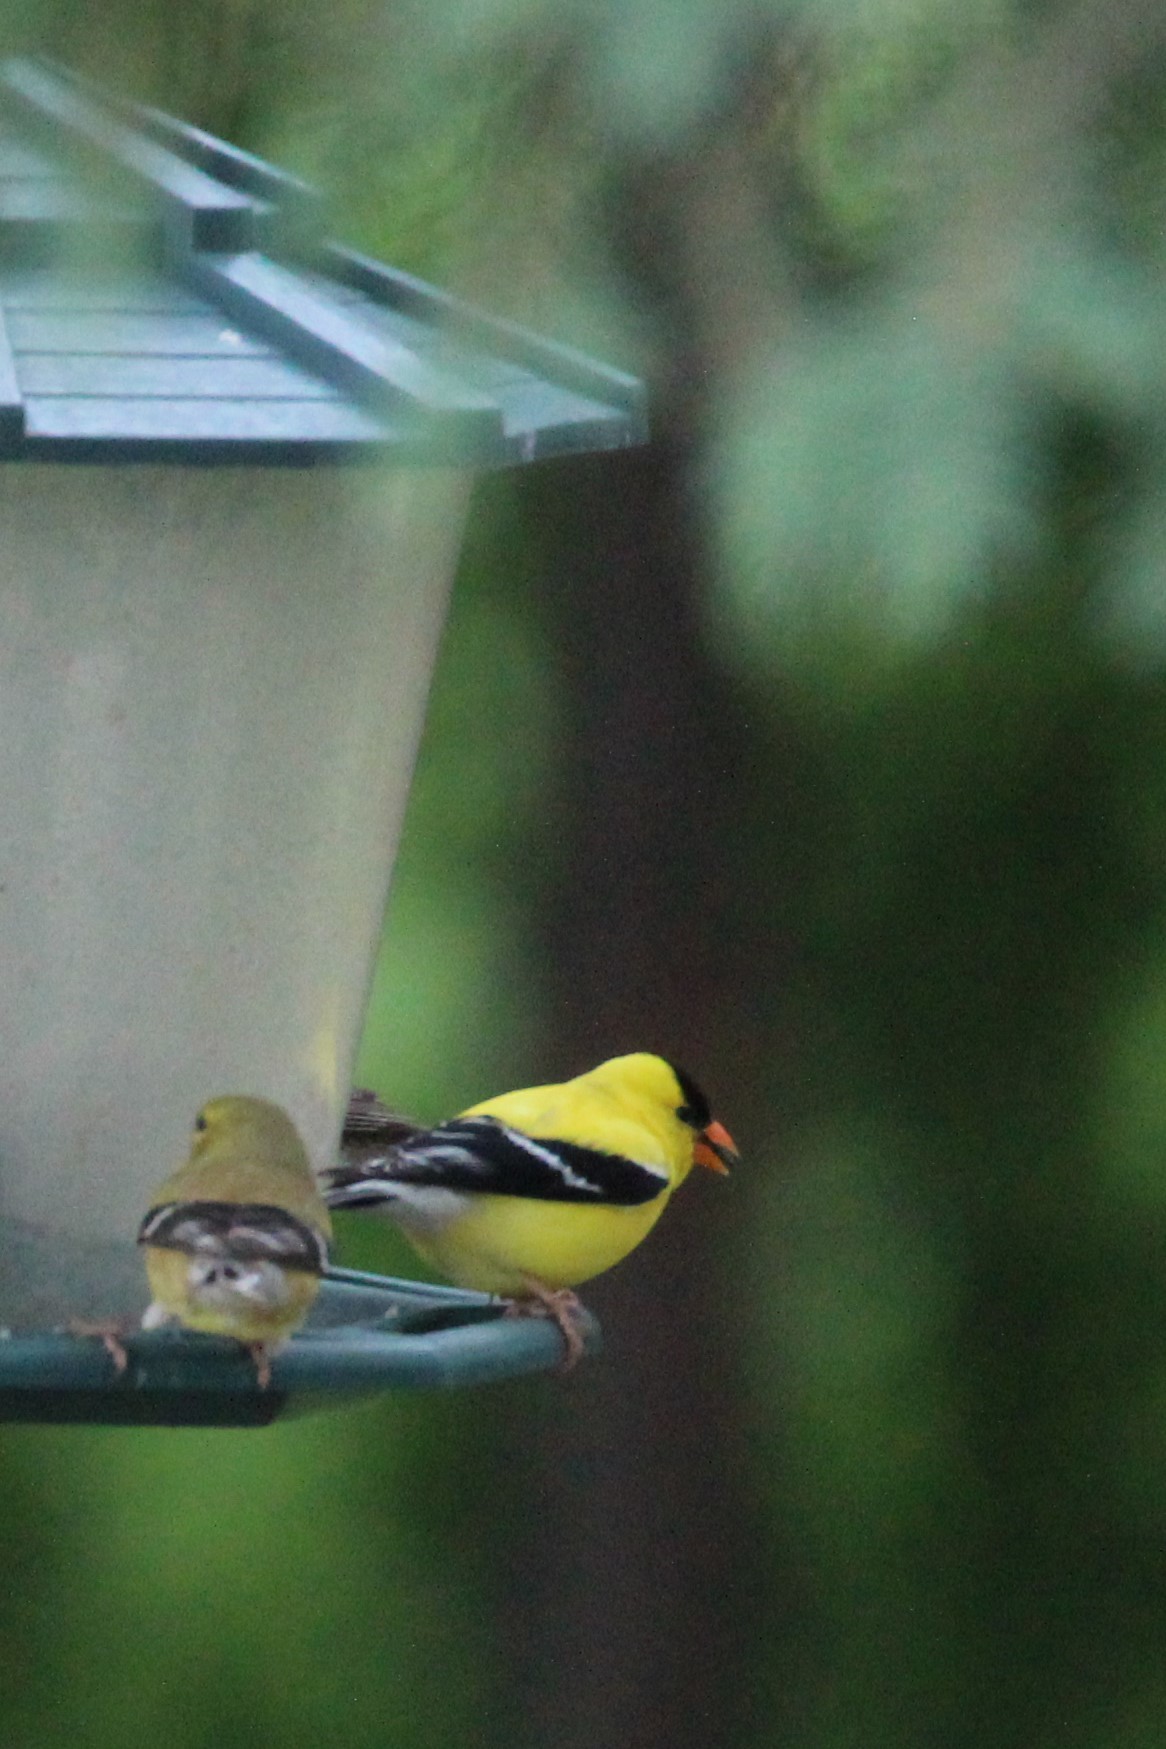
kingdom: Animalia
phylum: Chordata
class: Aves
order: Passeriformes
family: Fringillidae
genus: Spinus
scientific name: Spinus tristis
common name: American goldfinch
